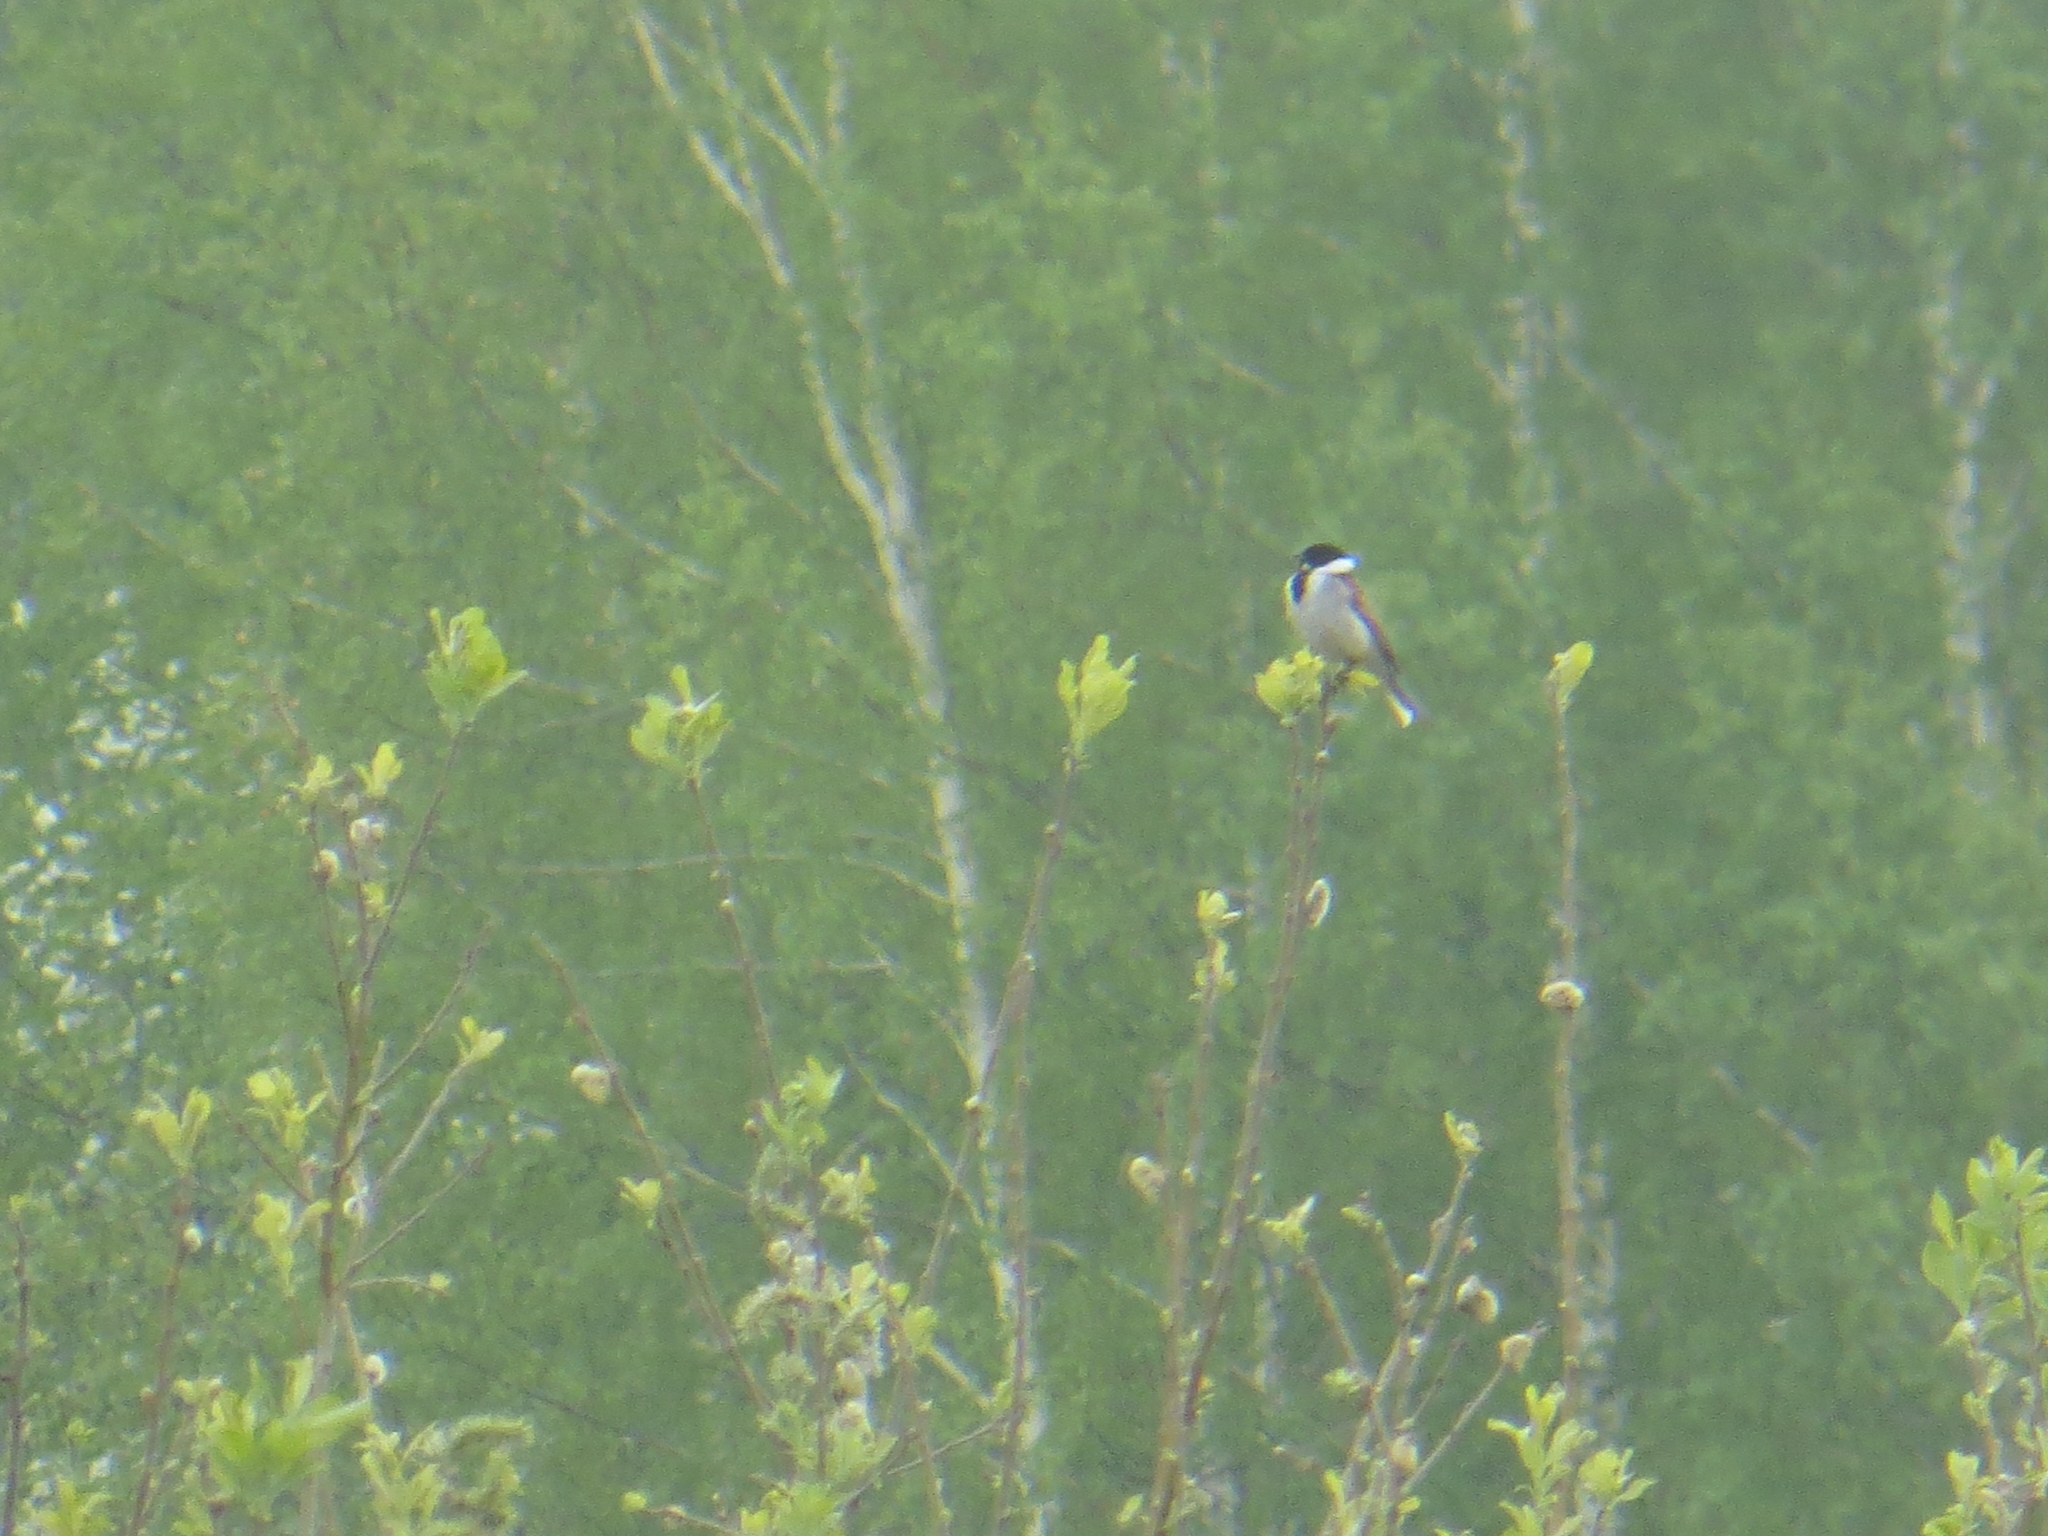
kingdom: Animalia
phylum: Chordata
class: Aves
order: Passeriformes
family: Emberizidae
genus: Emberiza
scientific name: Emberiza schoeniclus
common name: Reed bunting
